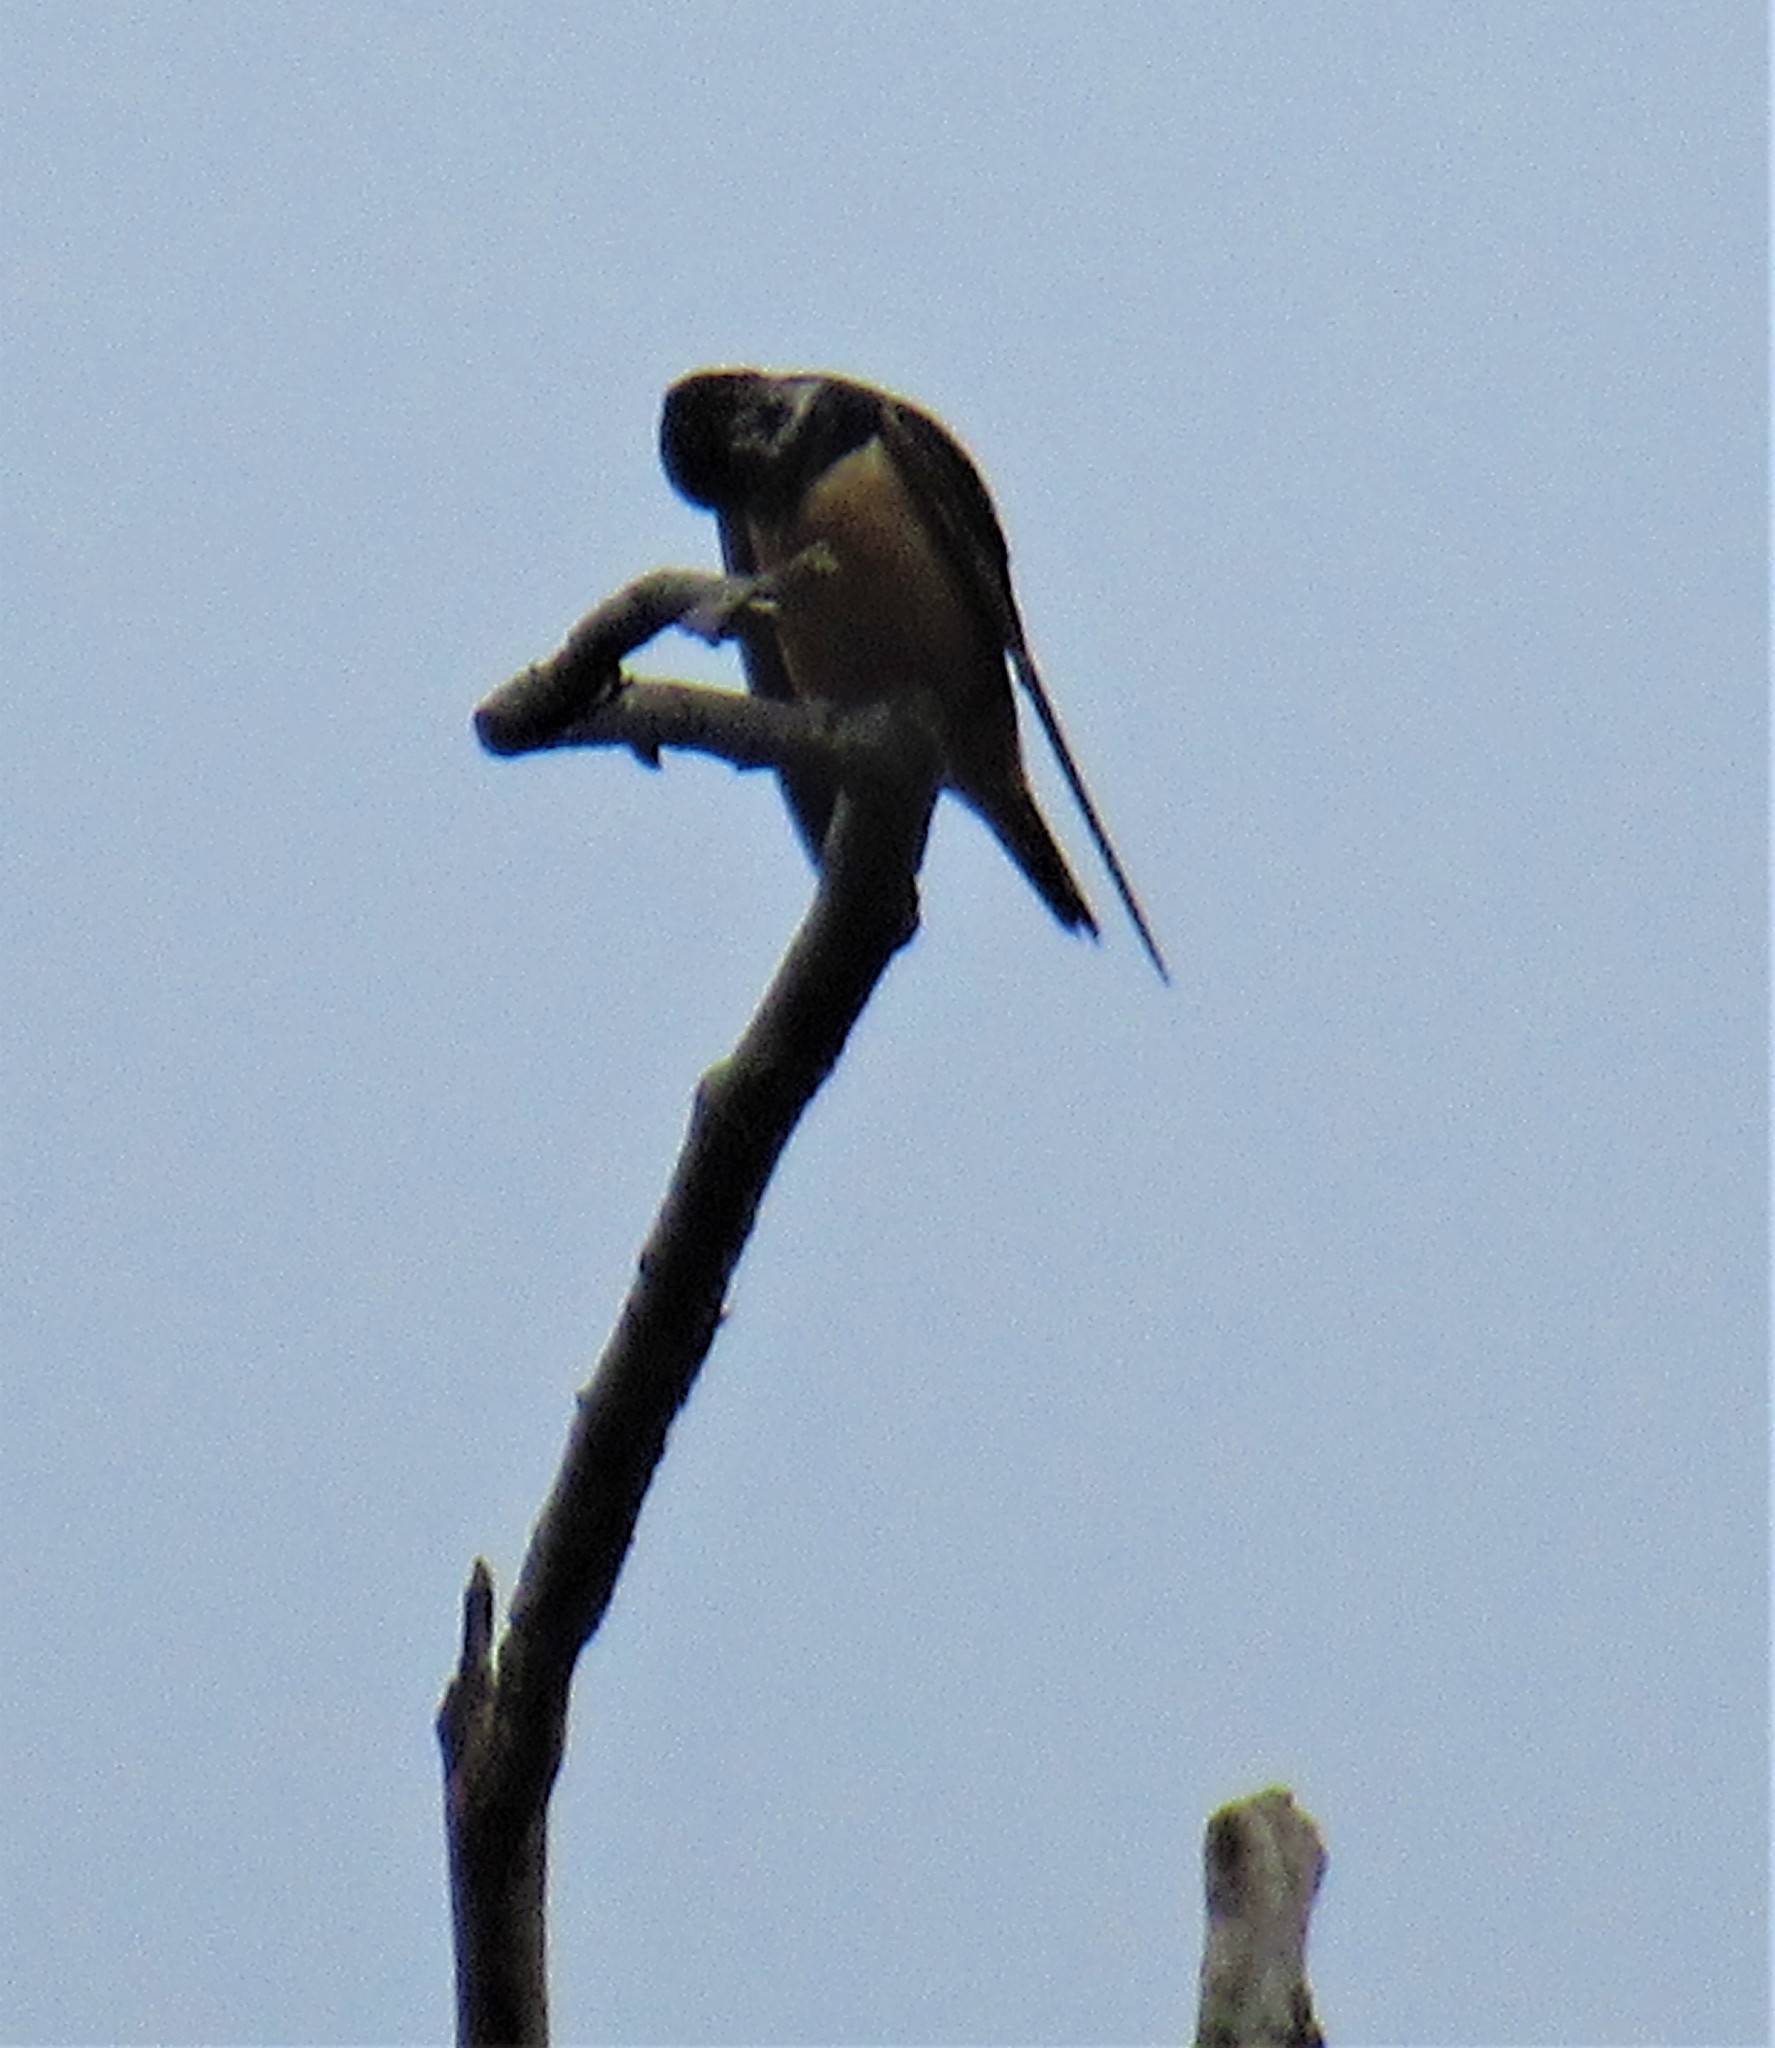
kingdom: Animalia
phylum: Chordata
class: Aves
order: Passeriformes
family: Hirundinidae
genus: Hirundo
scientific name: Hirundo rustica
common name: Barn swallow
